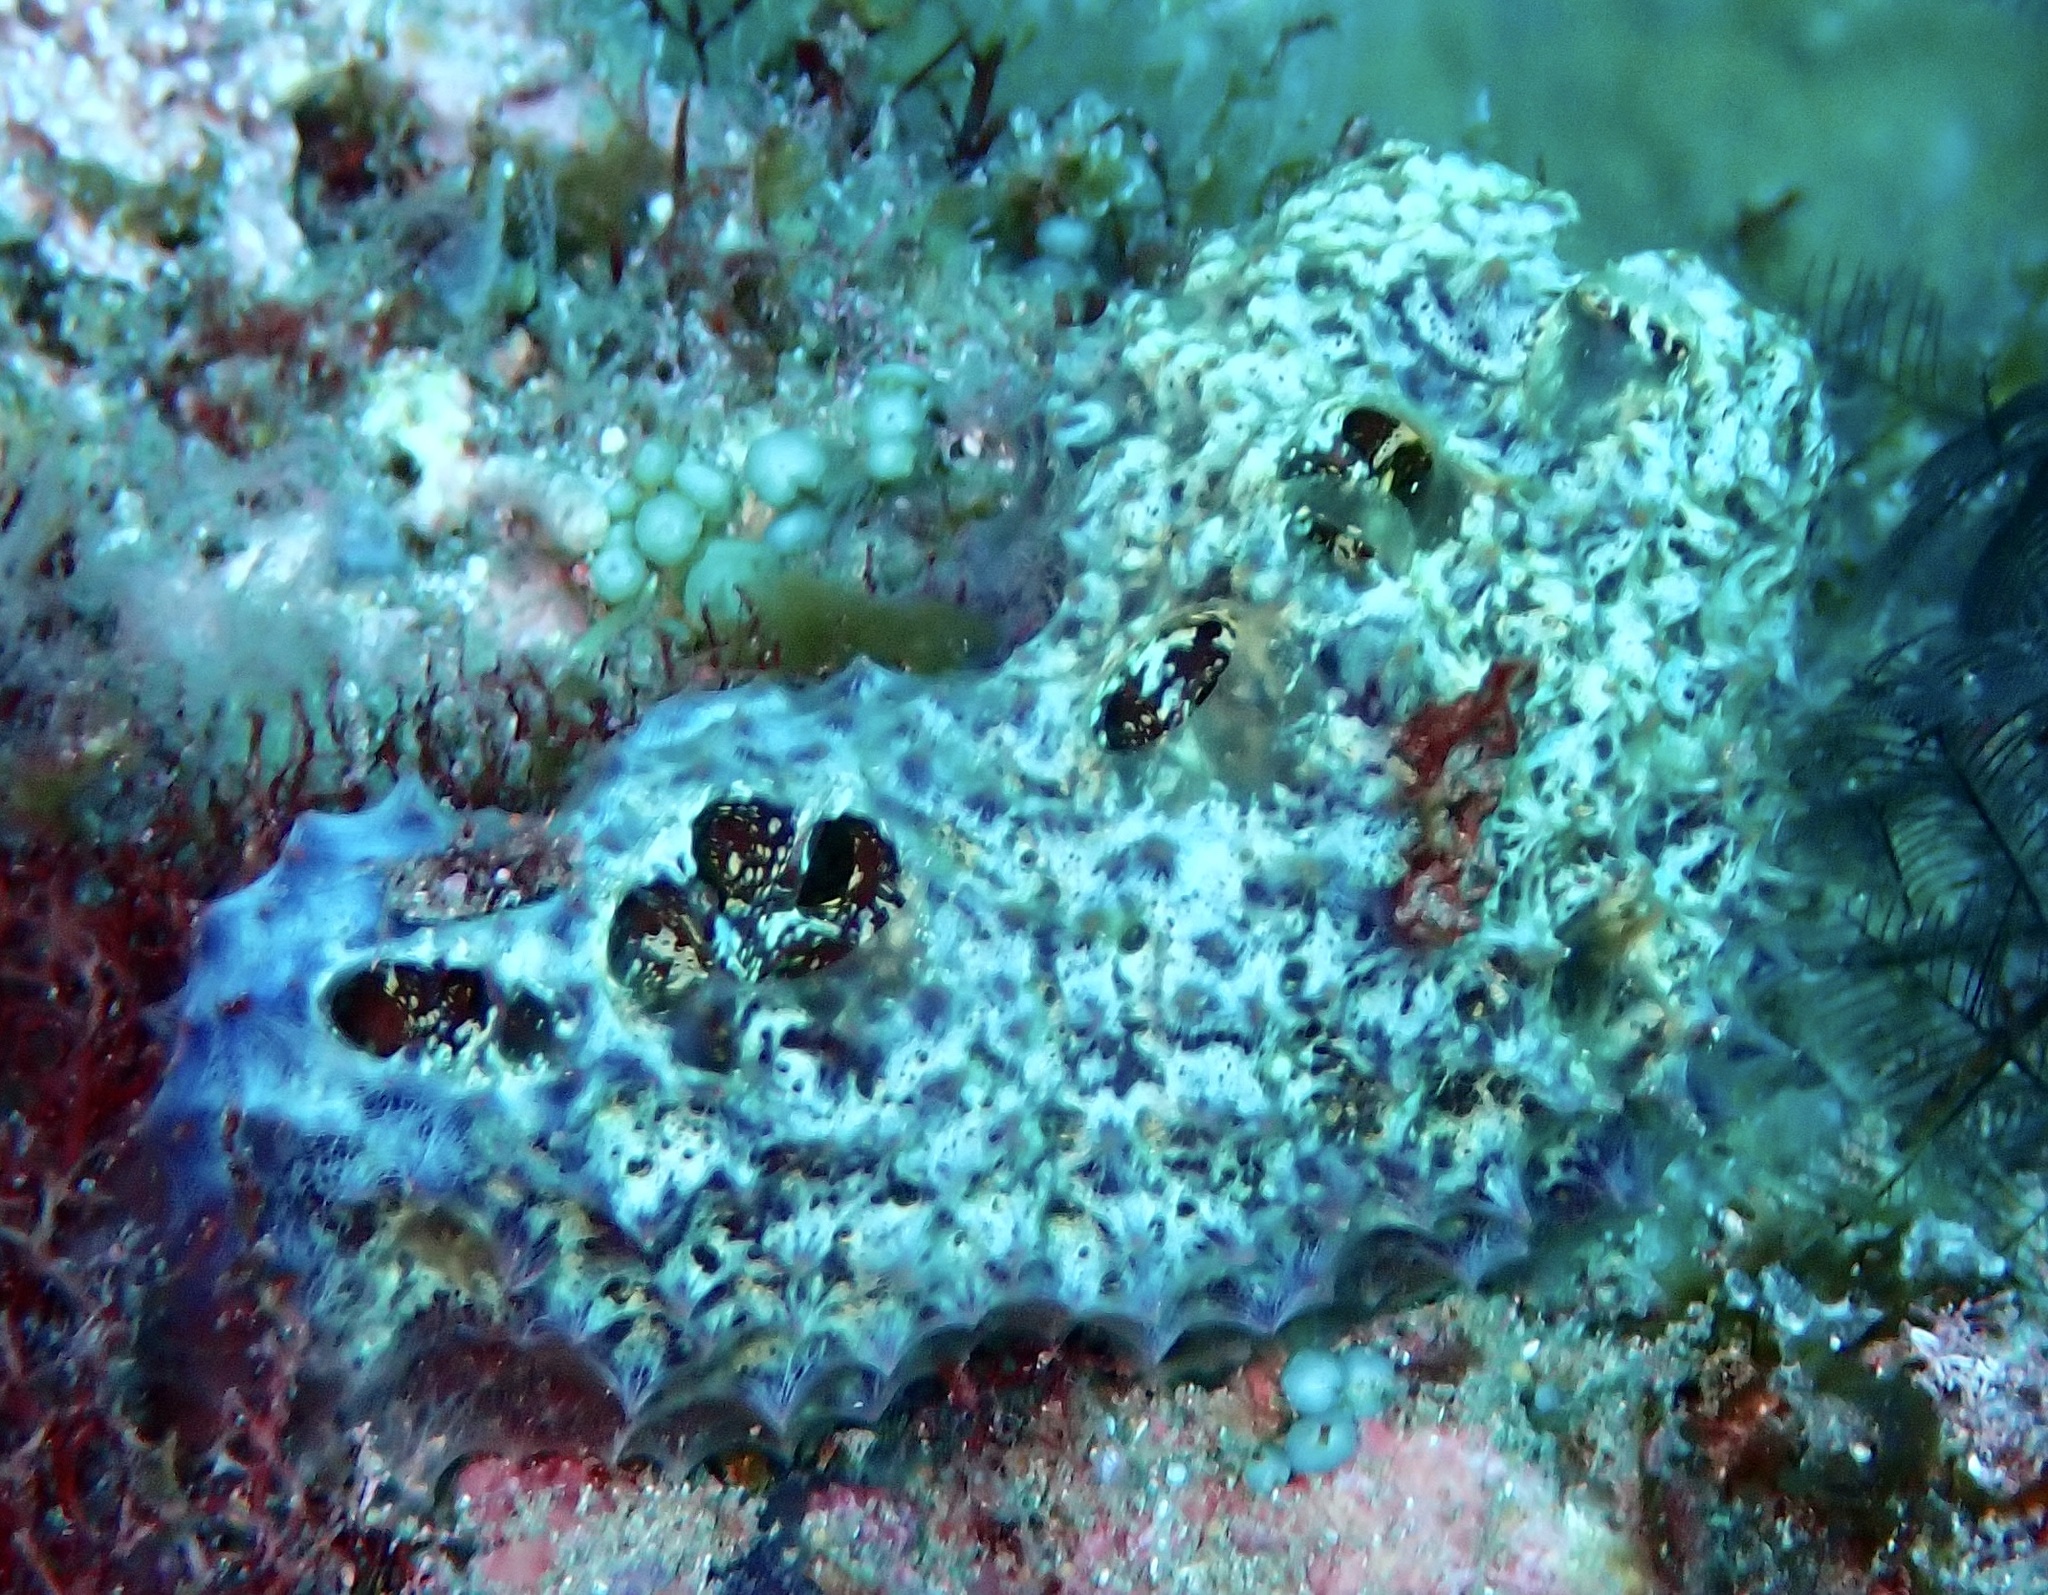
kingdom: Animalia
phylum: Porifera
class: Demospongiae
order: Poecilosclerida
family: Mycalidae
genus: Mycale
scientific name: Mycale laxissima
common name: Strawberry vase sponge
